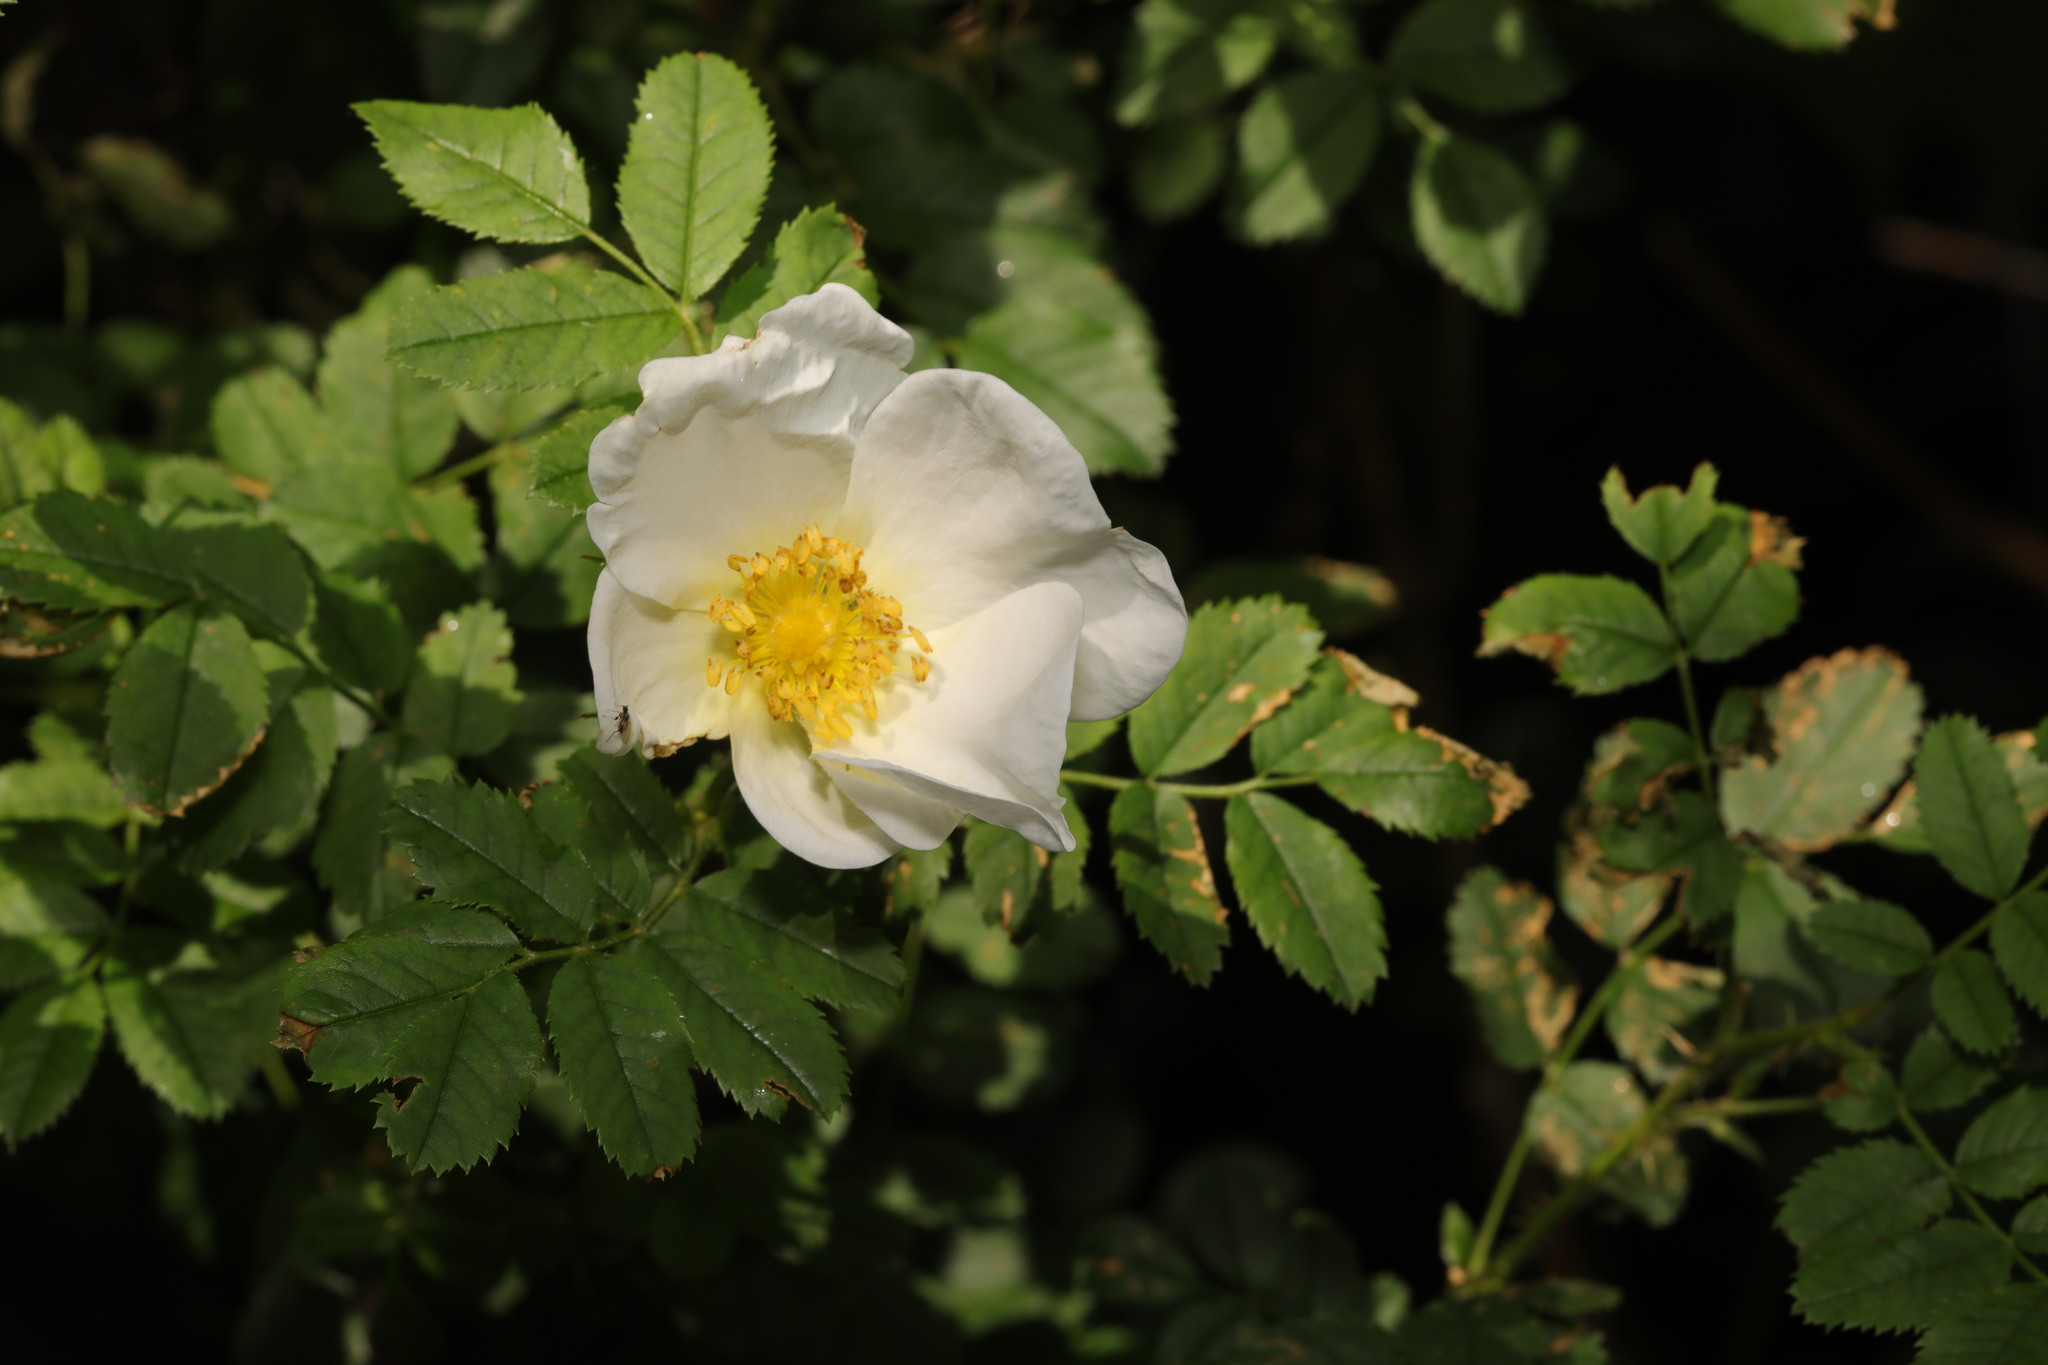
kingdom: Plantae
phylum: Tracheophyta
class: Magnoliopsida
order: Rosales
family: Rosaceae
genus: Rosa
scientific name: Rosa canina
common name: Dog rose
